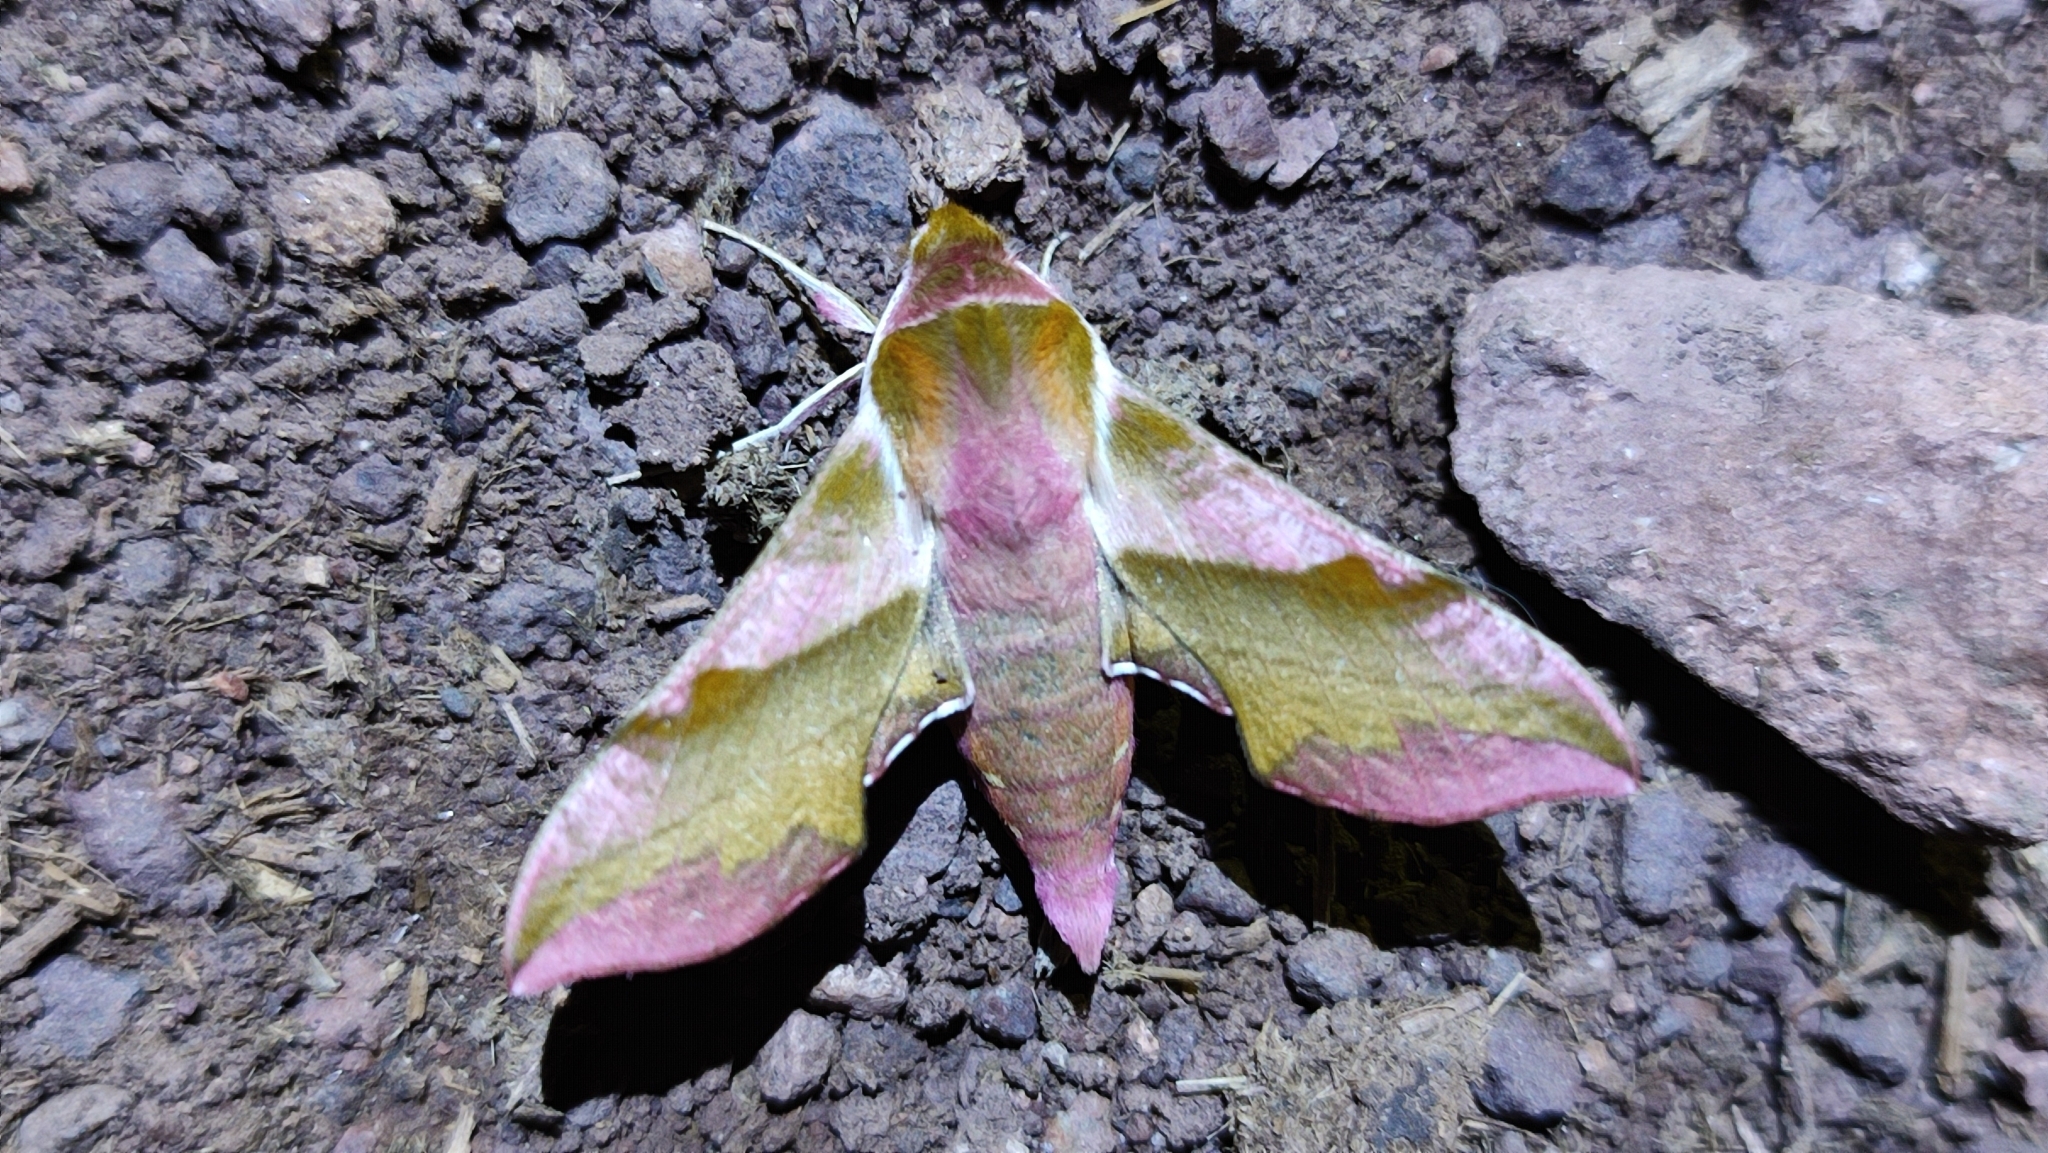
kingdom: Animalia
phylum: Arthropoda
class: Insecta
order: Lepidoptera
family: Sphingidae
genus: Deilephila
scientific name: Deilephila porcellus
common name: Small elephant hawk-moth
